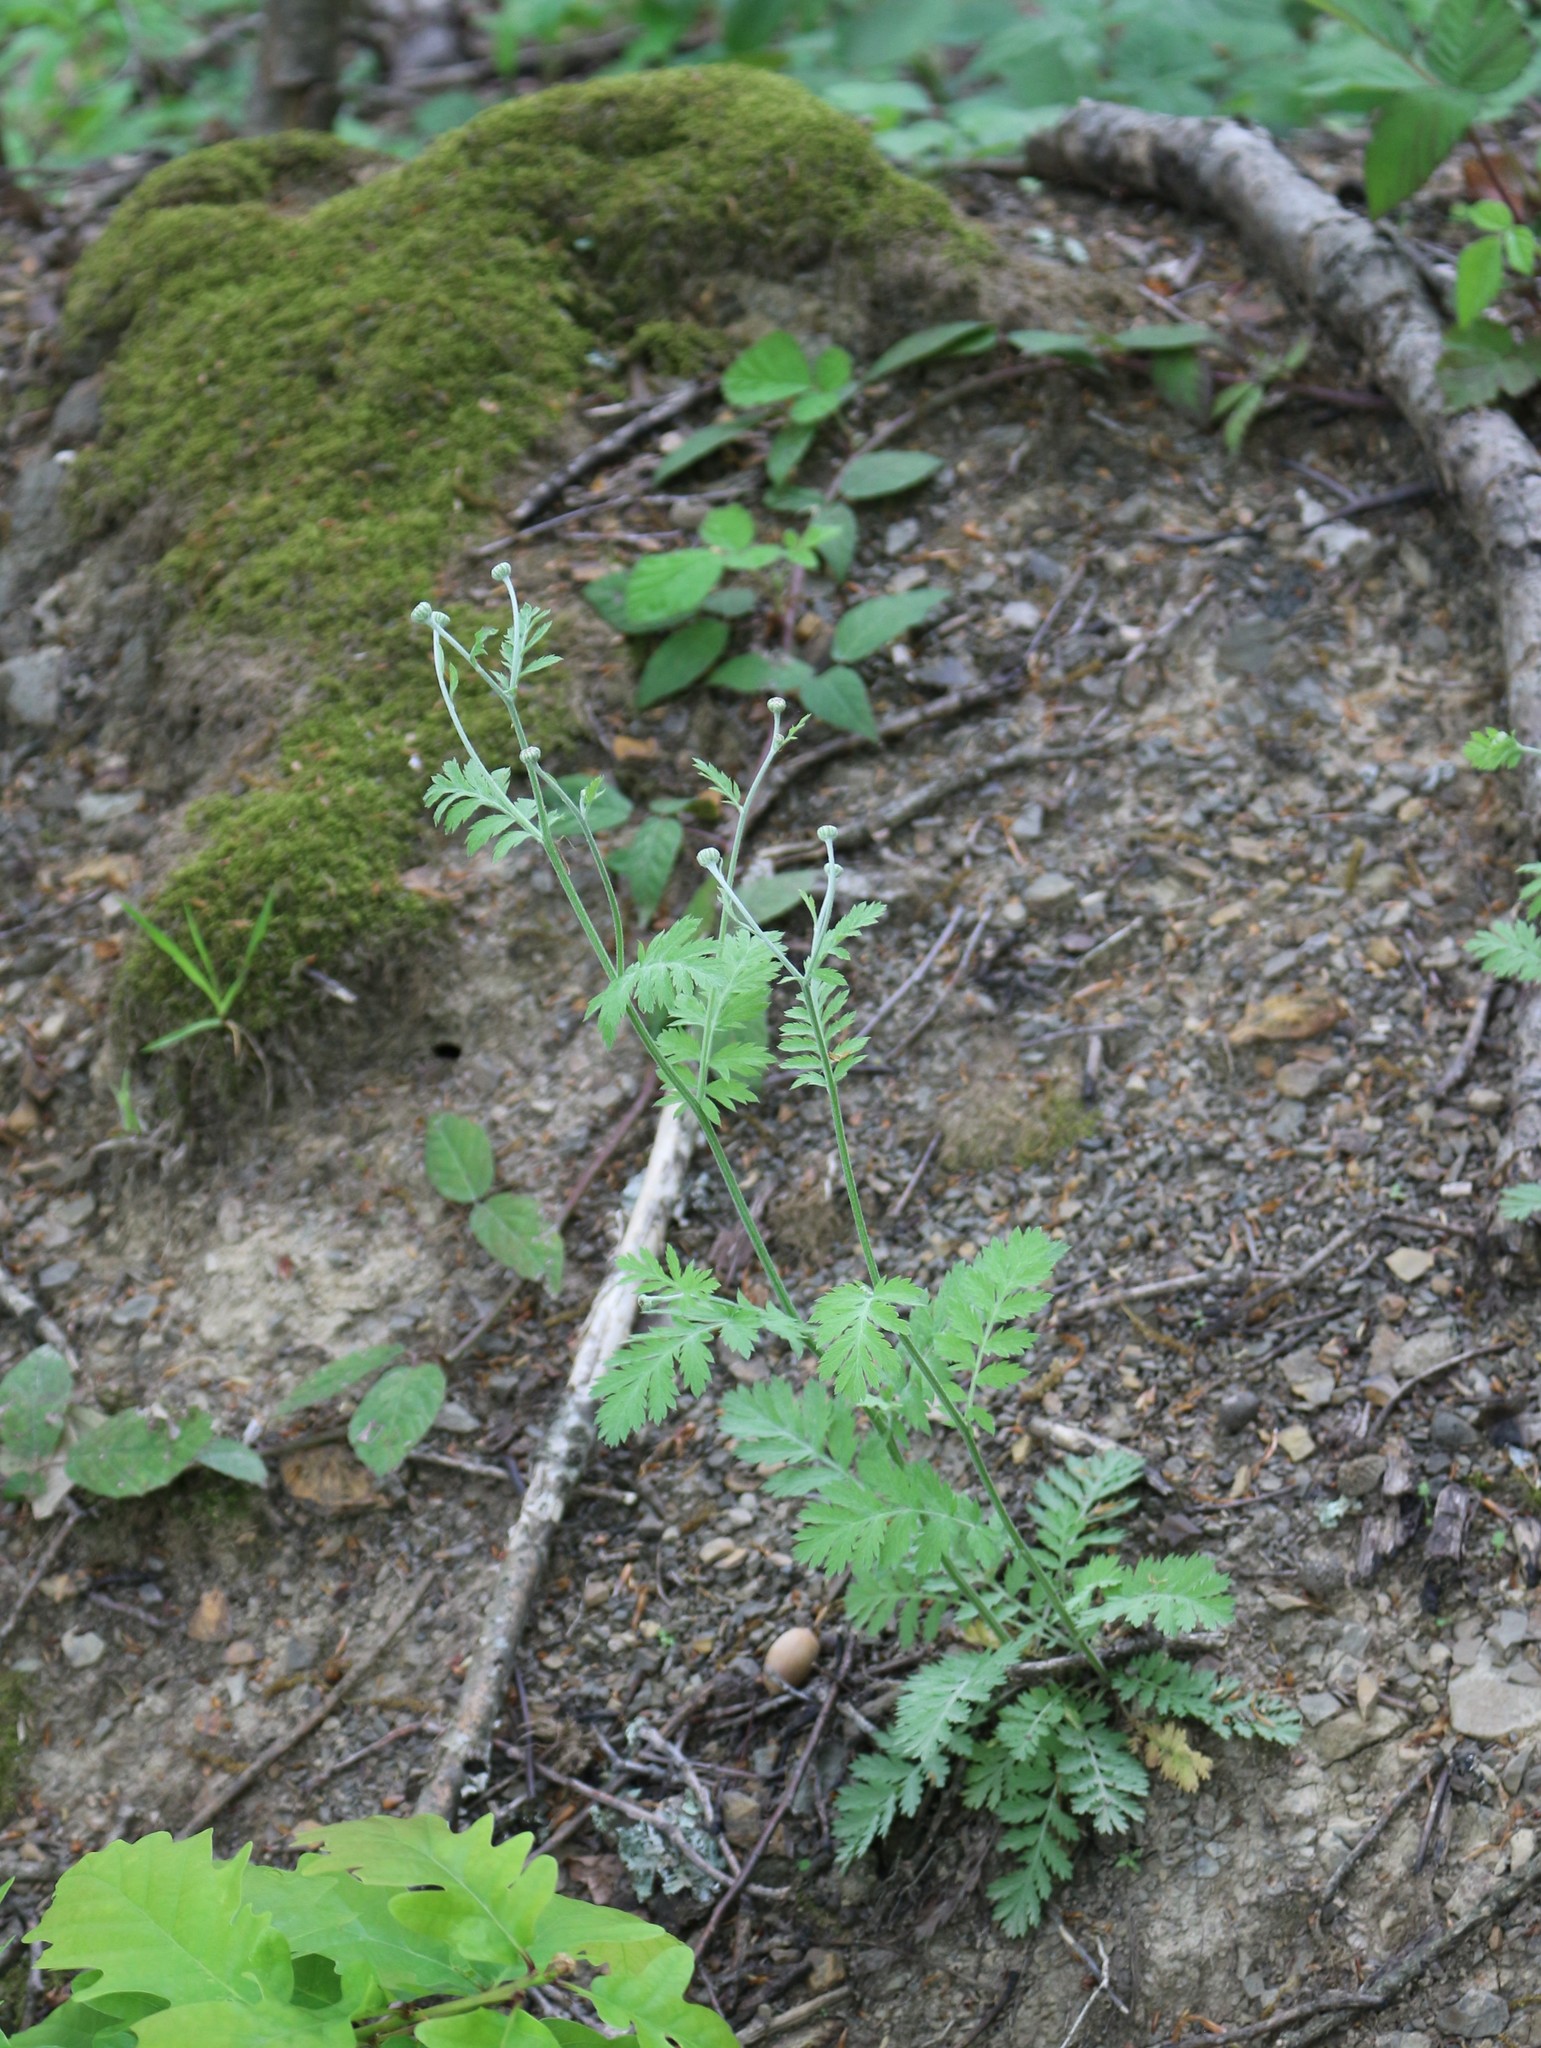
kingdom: Plantae
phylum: Tracheophyta
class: Magnoliopsida
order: Asterales
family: Asteraceae
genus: Tanacetum
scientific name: Tanacetum poteriifolium
